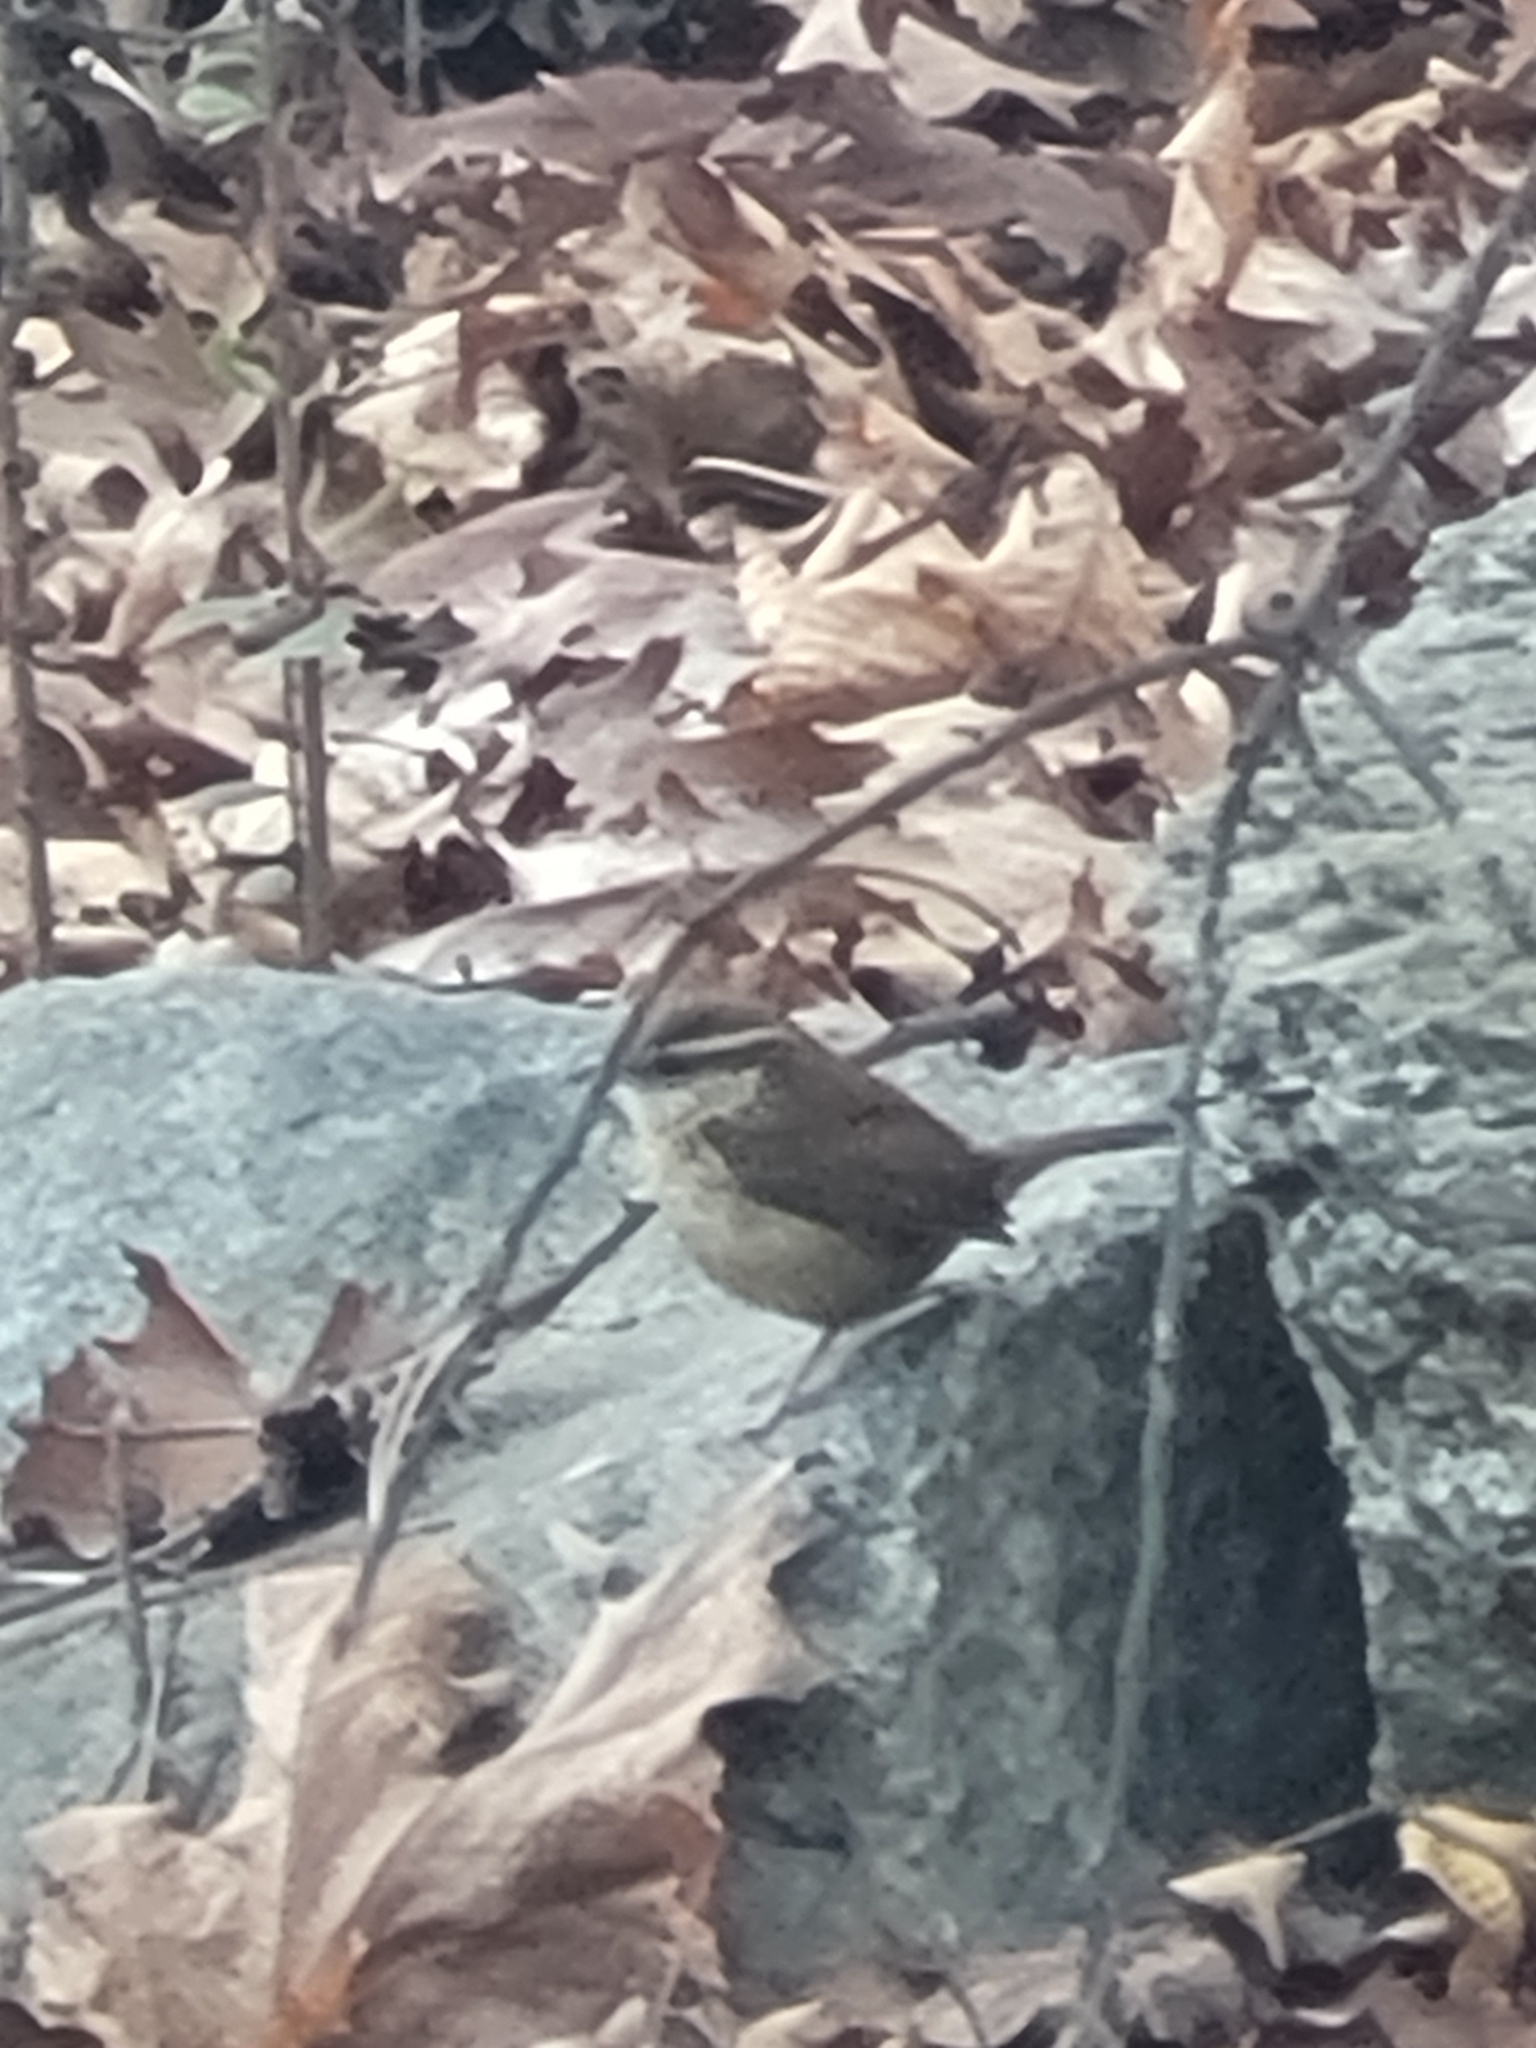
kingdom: Animalia
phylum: Chordata
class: Aves
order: Passeriformes
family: Troglodytidae
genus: Thryothorus
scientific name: Thryothorus ludovicianus
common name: Carolina wren
